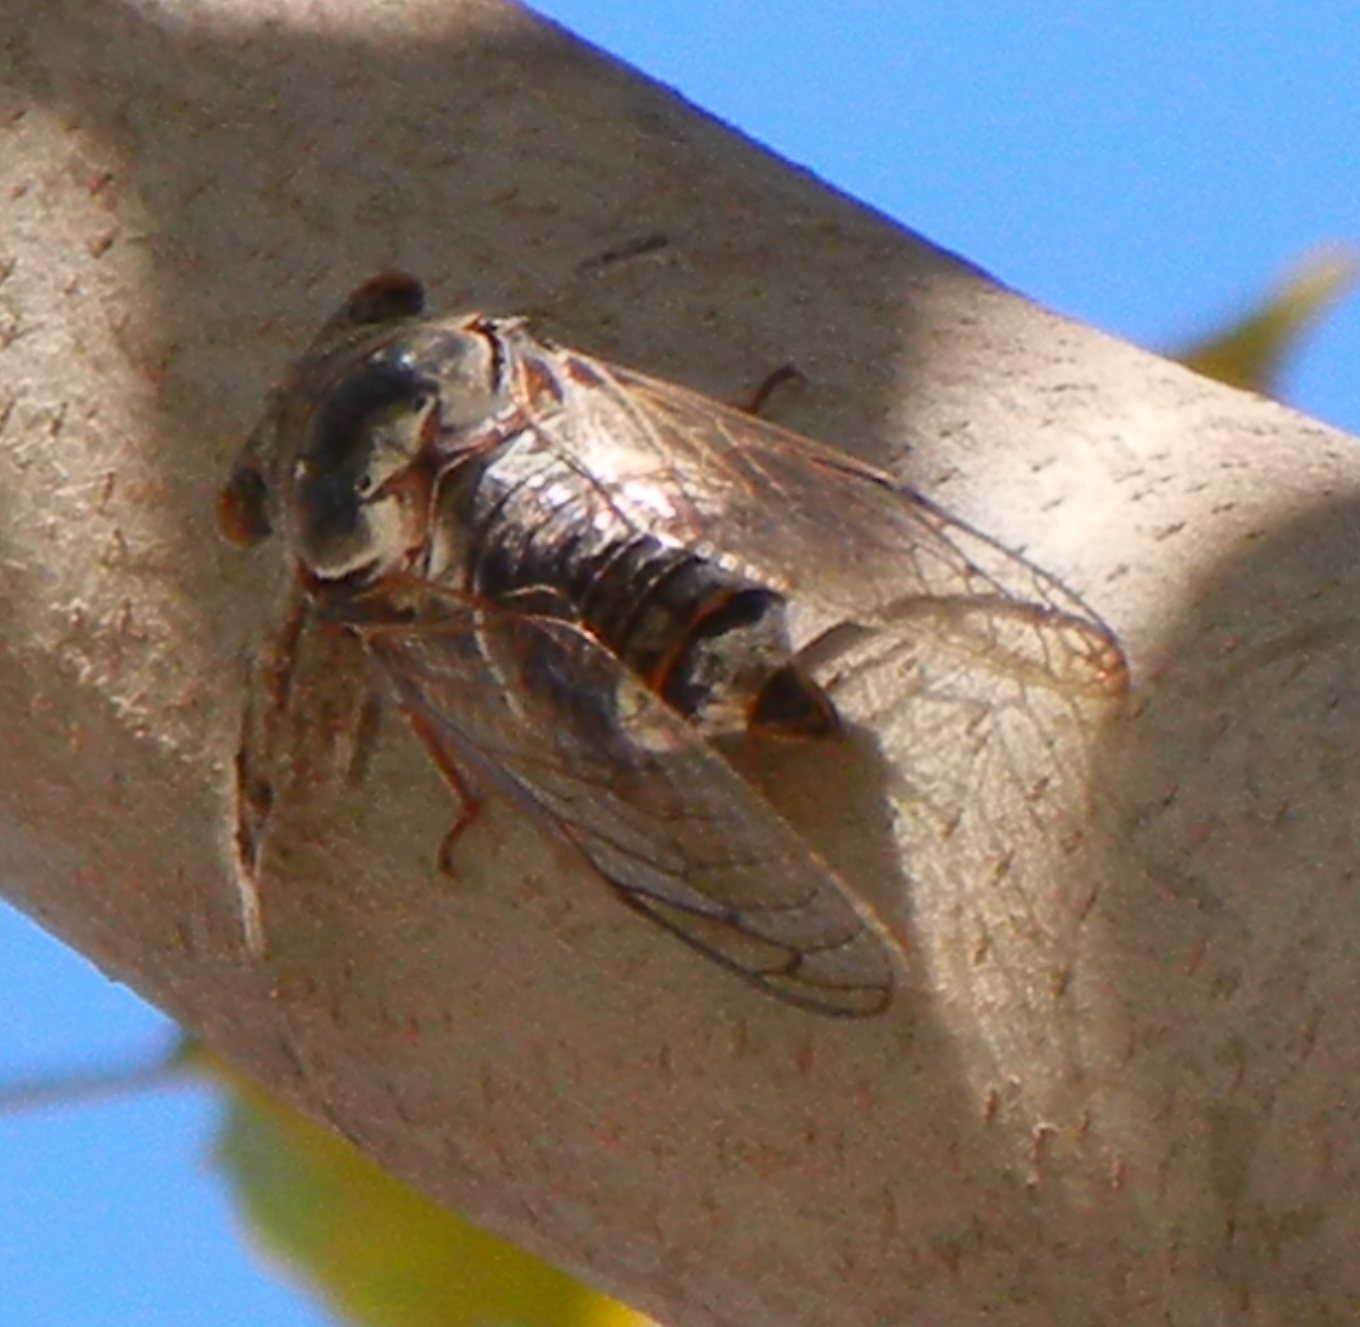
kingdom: Animalia
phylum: Arthropoda
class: Insecta
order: Hemiptera
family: Cicadidae
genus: Lyristes
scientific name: Lyristes plebejus
